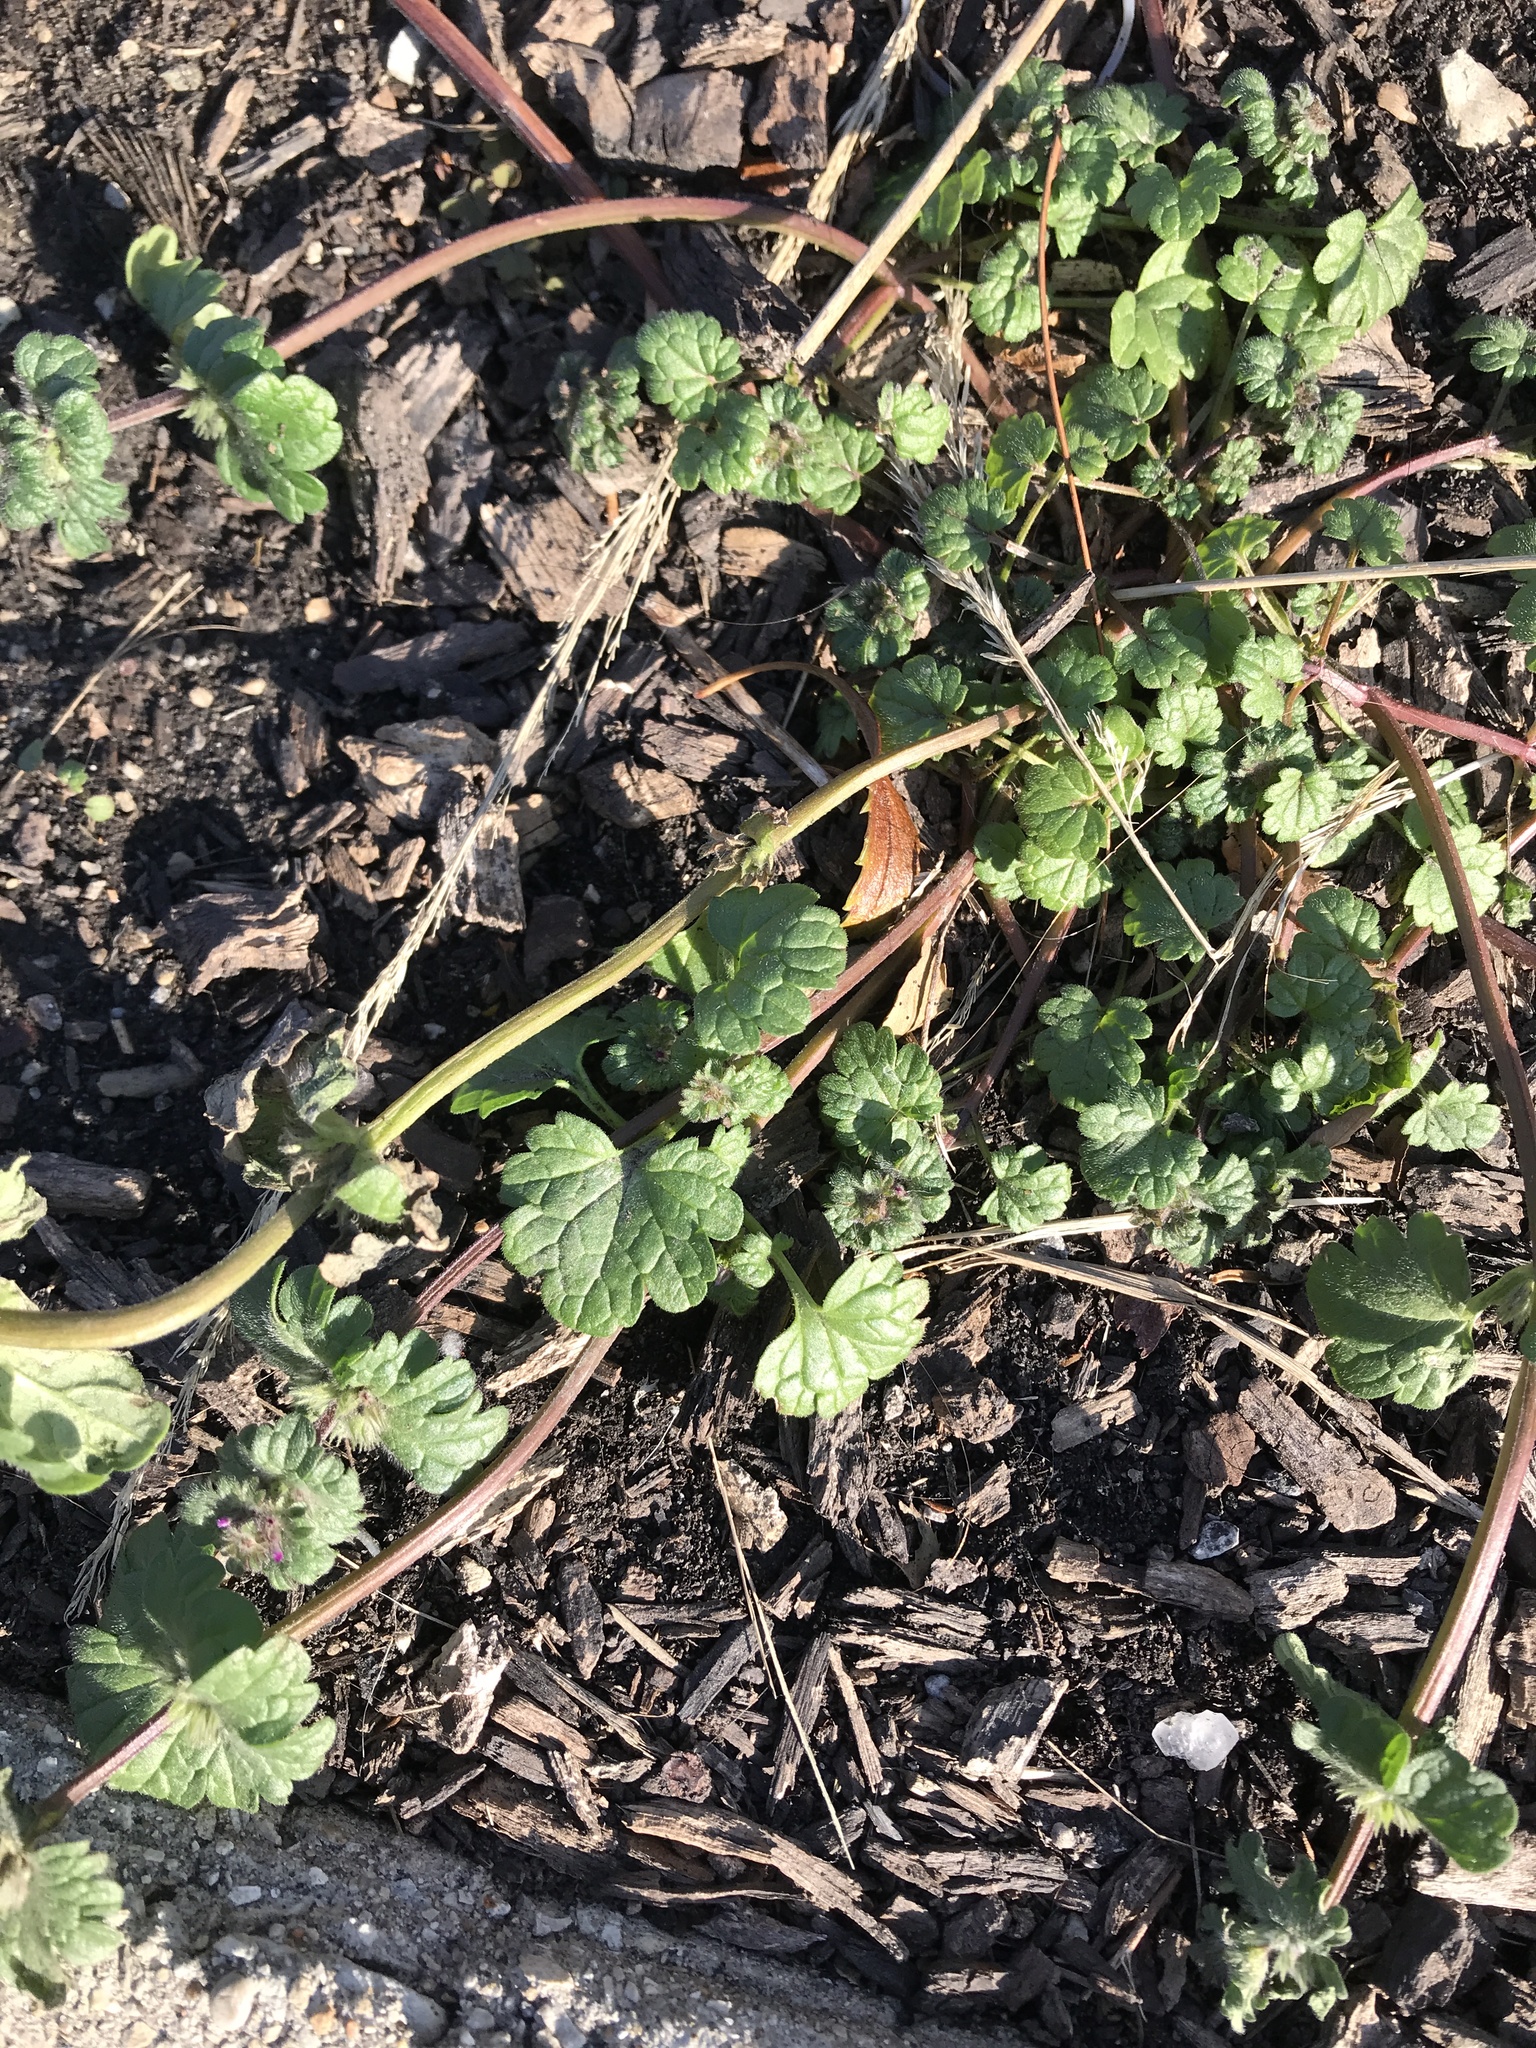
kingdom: Plantae
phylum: Tracheophyta
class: Magnoliopsida
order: Lamiales
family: Lamiaceae
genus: Lamium
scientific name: Lamium amplexicaule
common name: Henbit dead-nettle
